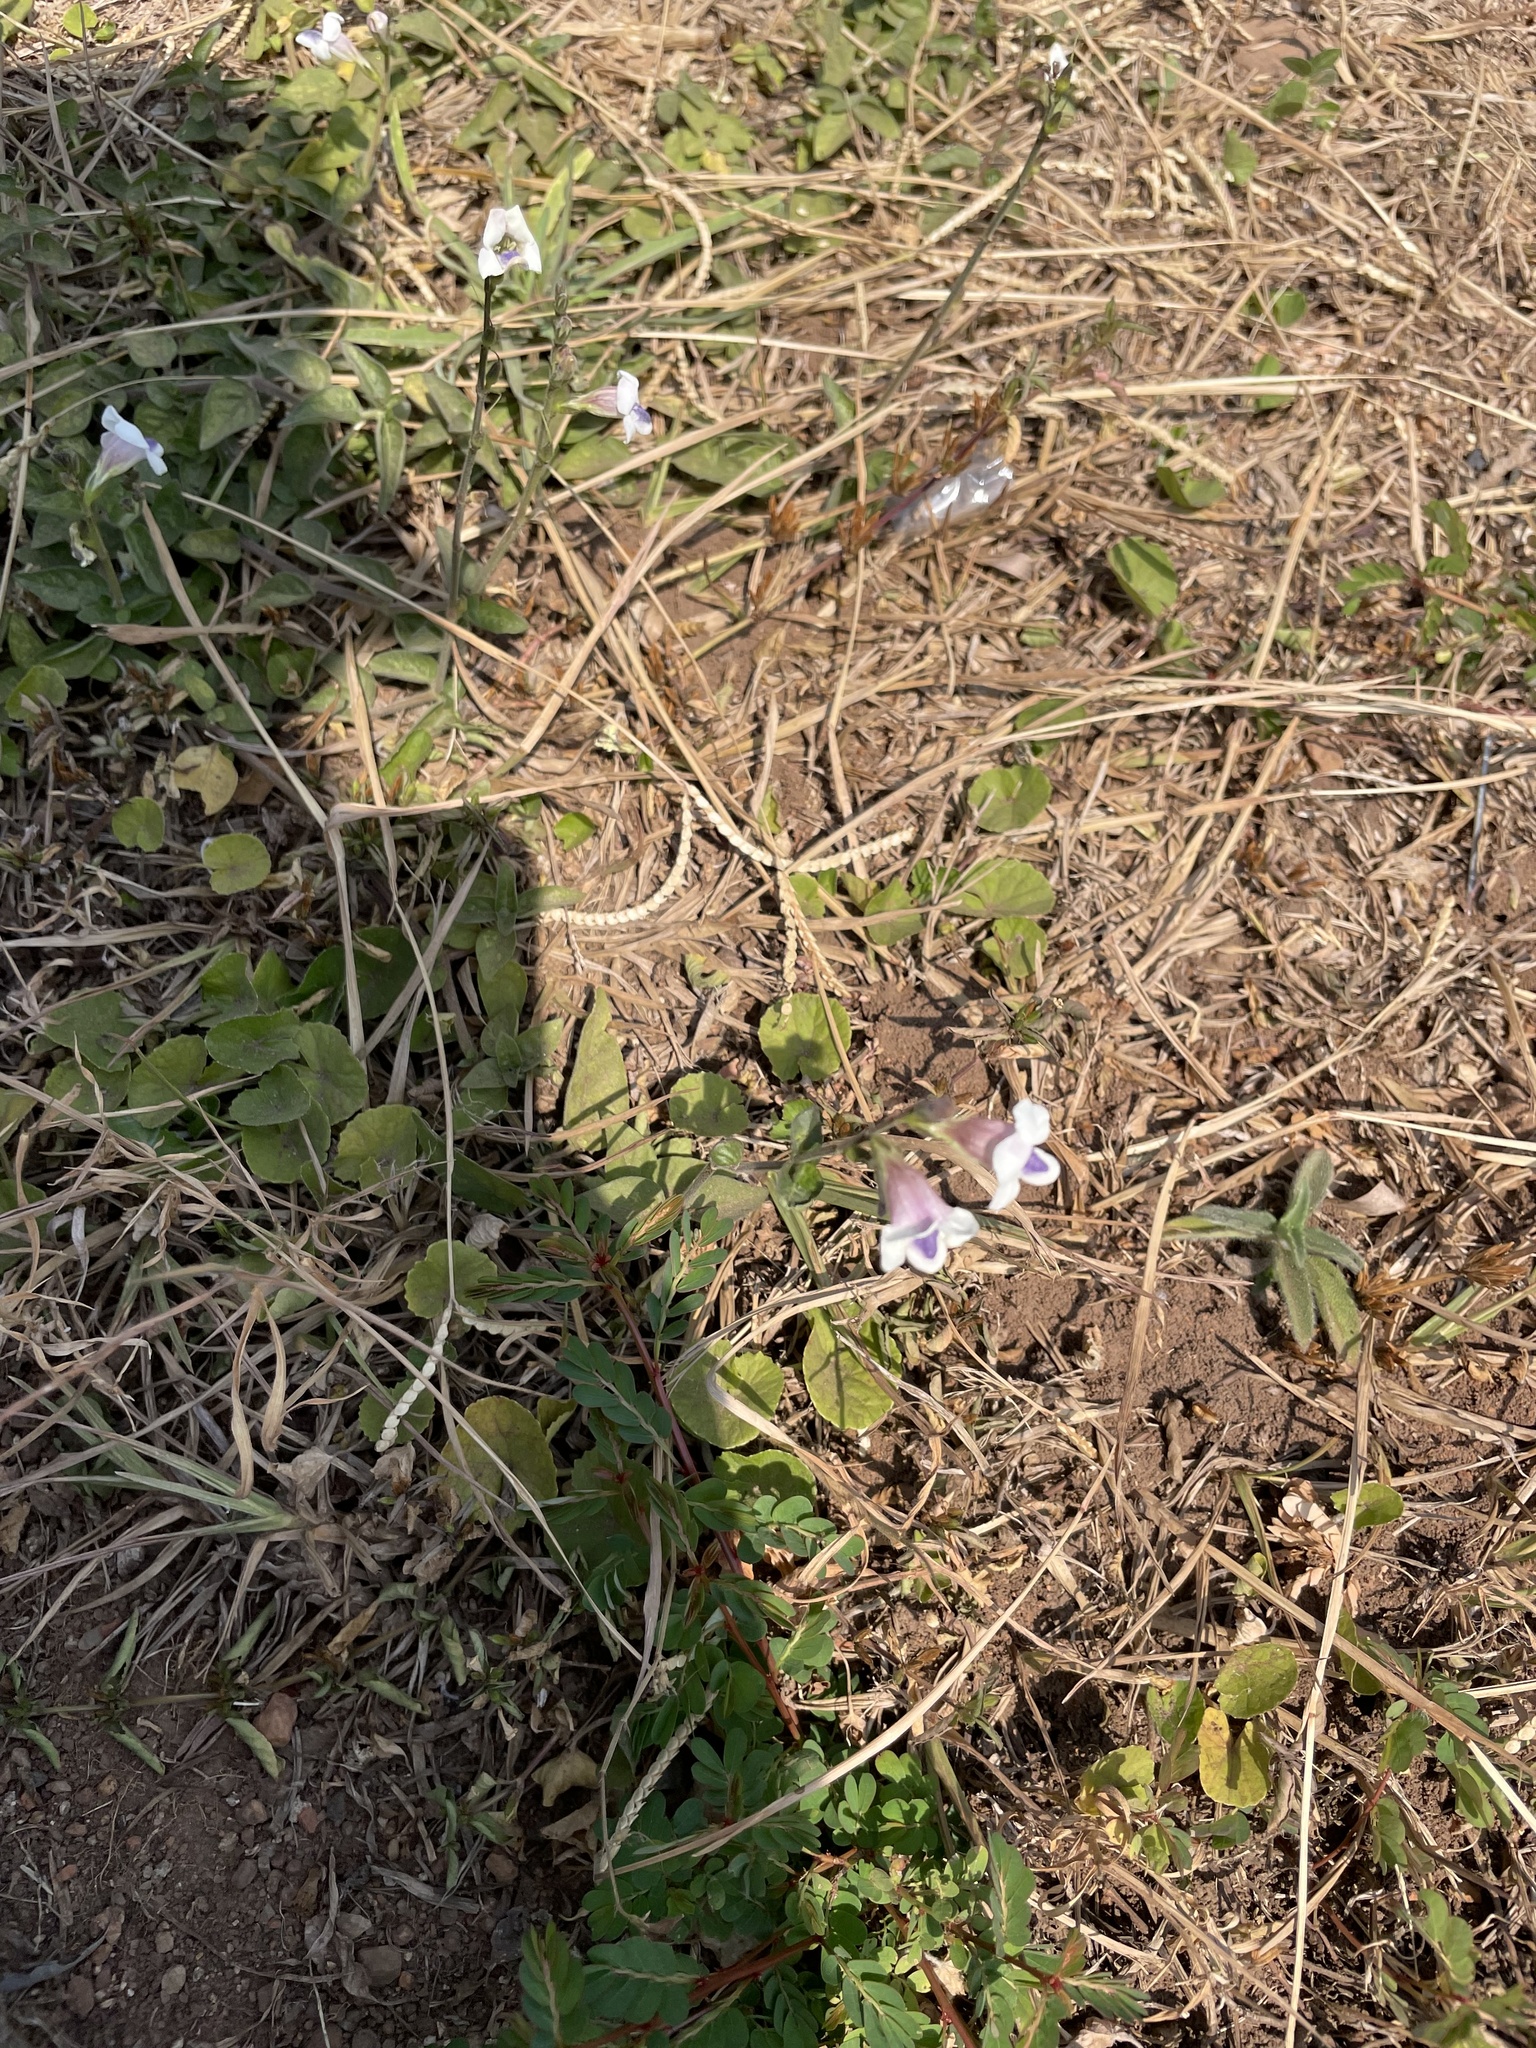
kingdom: Plantae
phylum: Tracheophyta
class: Magnoliopsida
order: Lamiales
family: Acanthaceae
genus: Asystasia
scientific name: Asystasia intrusa
